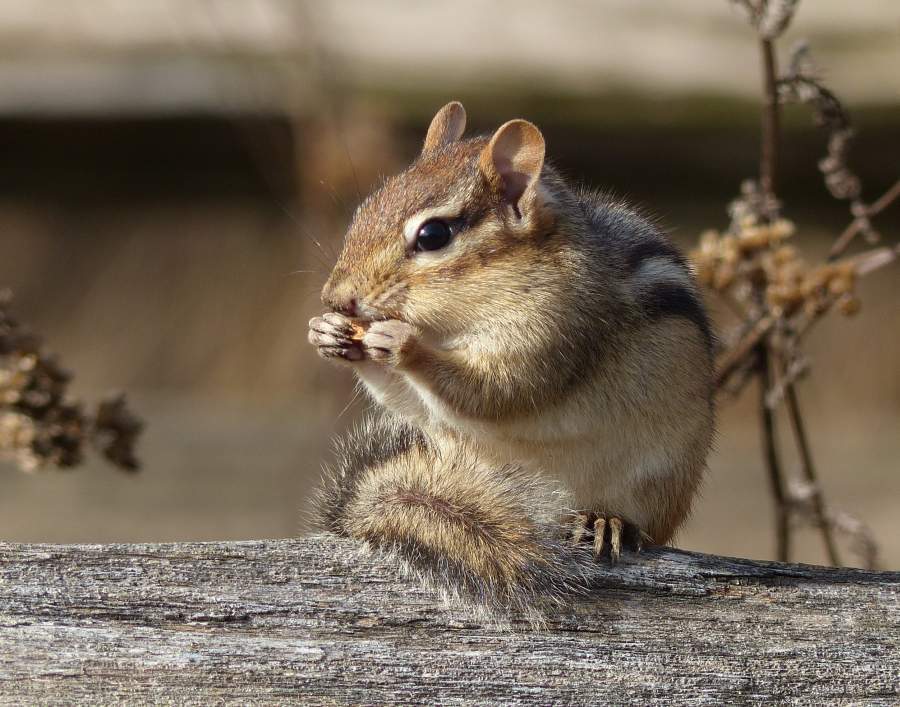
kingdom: Animalia
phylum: Chordata
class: Mammalia
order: Rodentia
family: Sciuridae
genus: Tamias
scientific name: Tamias striatus
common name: Eastern chipmunk
